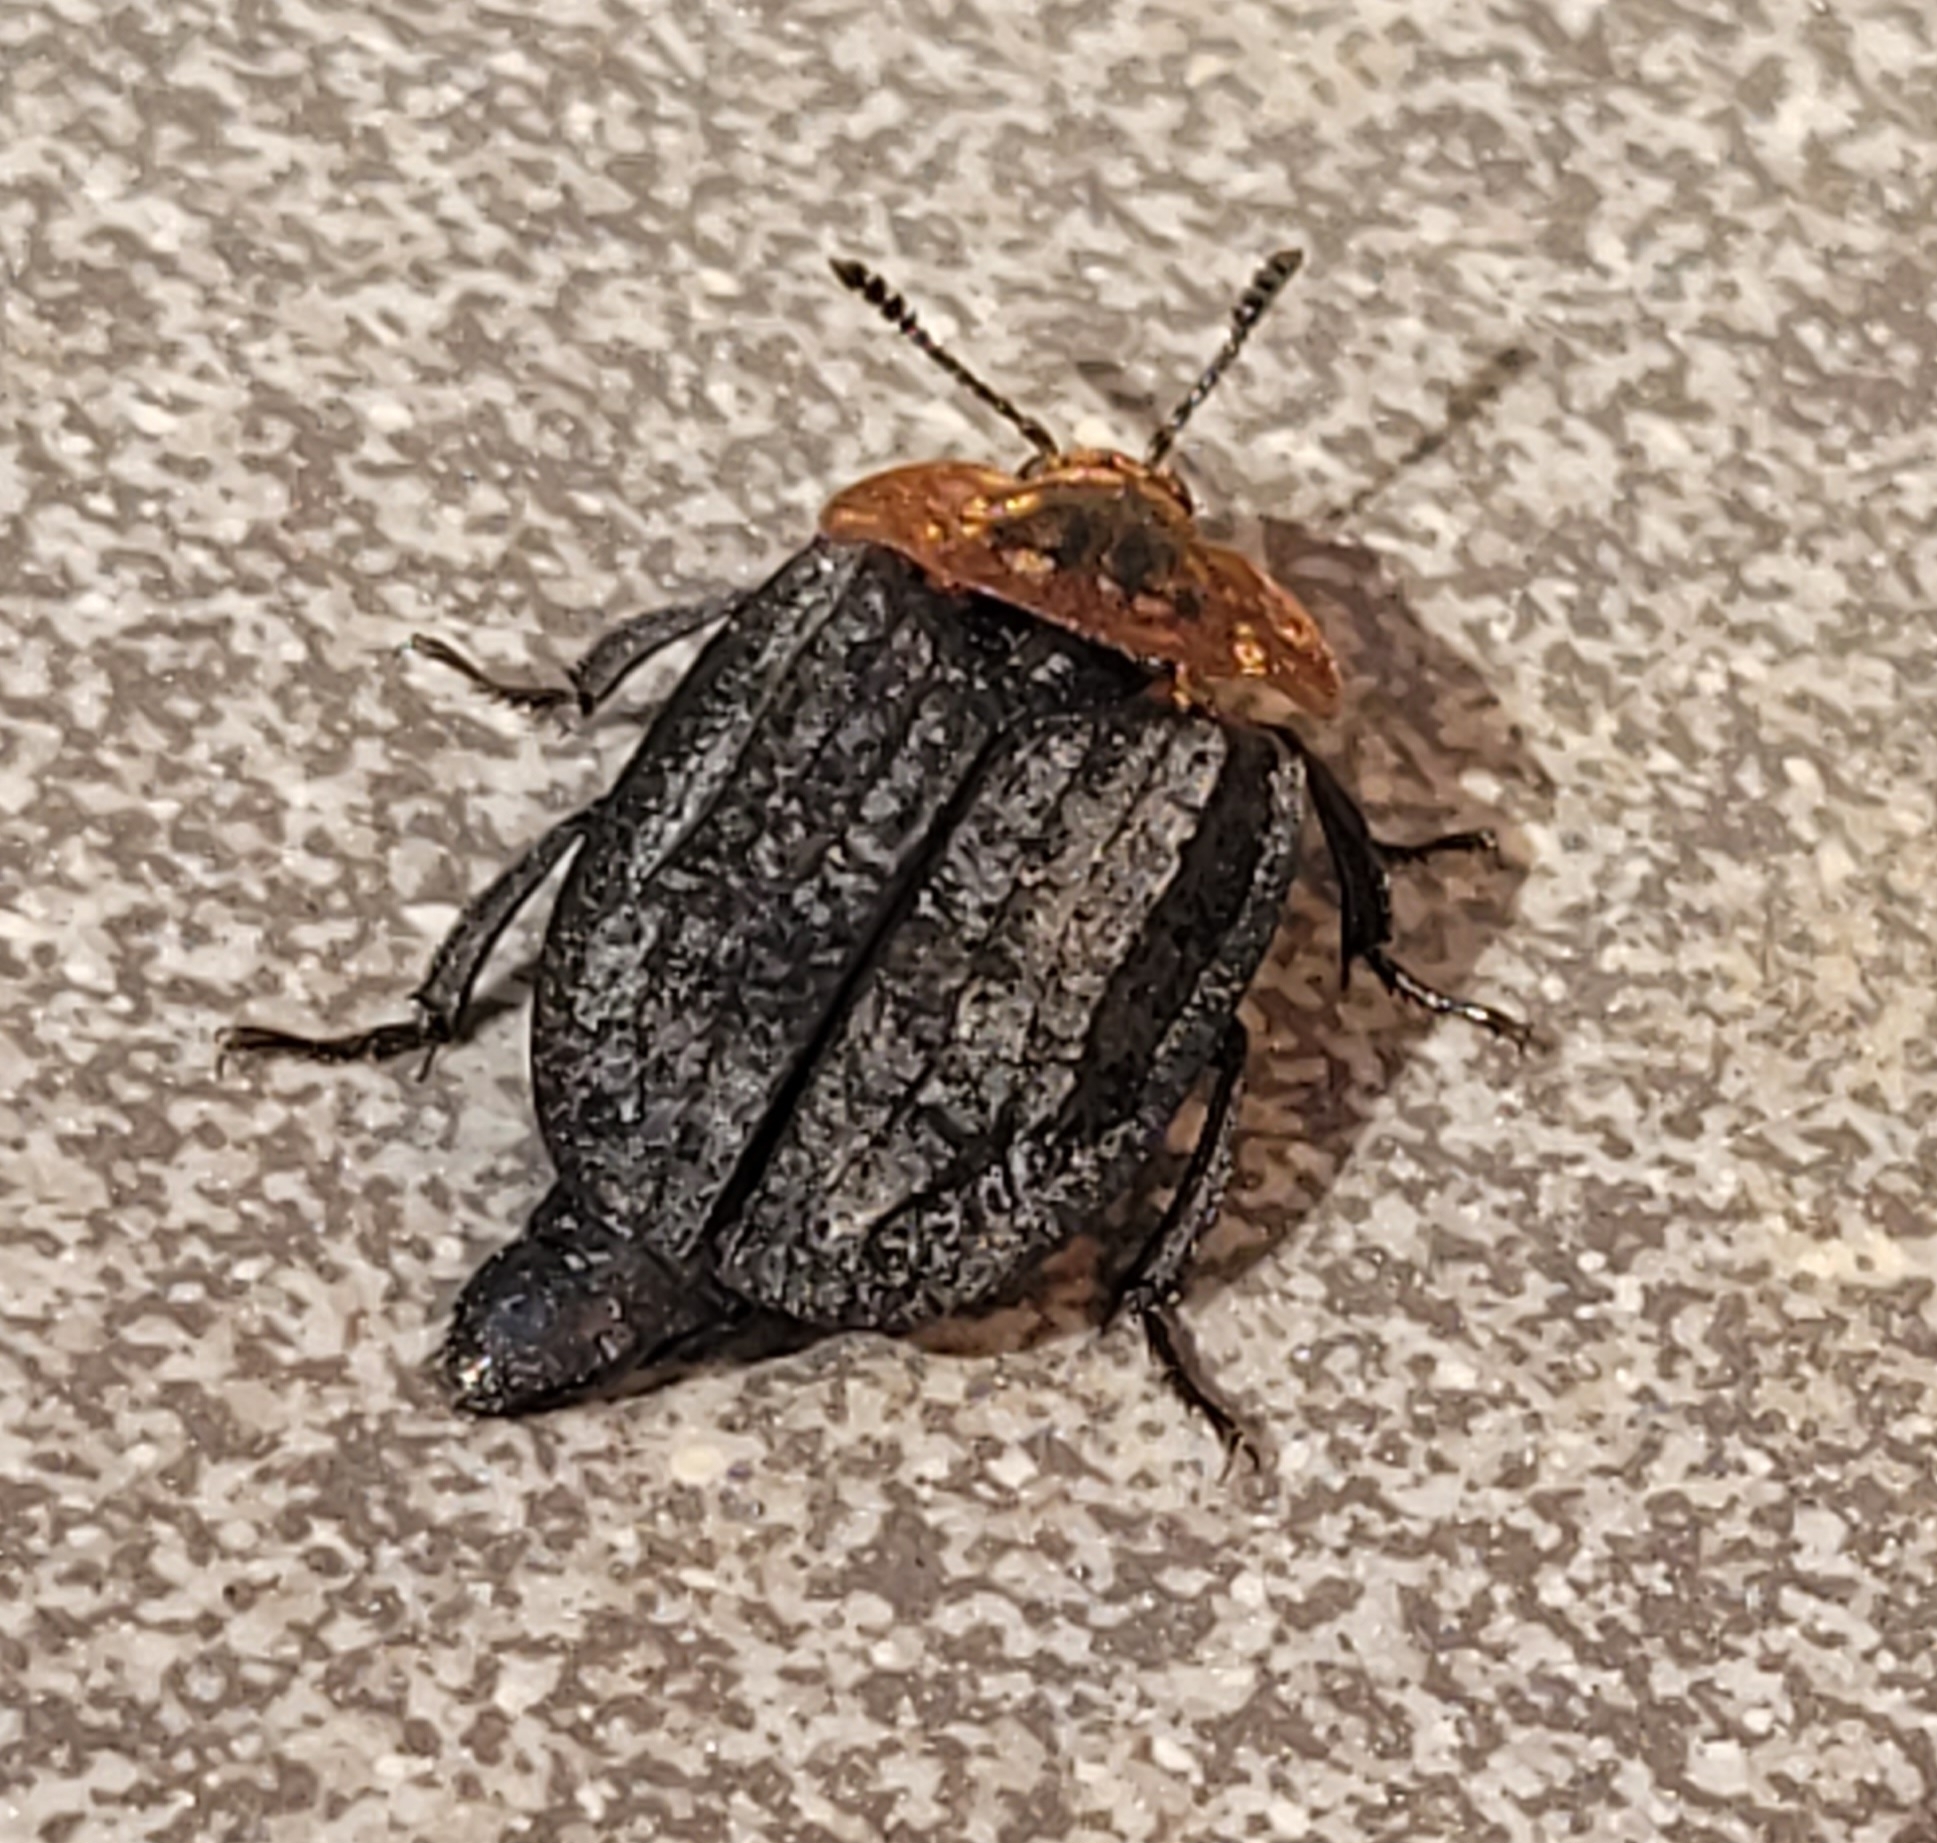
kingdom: Animalia
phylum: Arthropoda
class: Insecta
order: Coleoptera
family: Staphylinidae
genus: Oiceoptoma
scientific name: Oiceoptoma thoracicum
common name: Red-breasted carrion beetle
